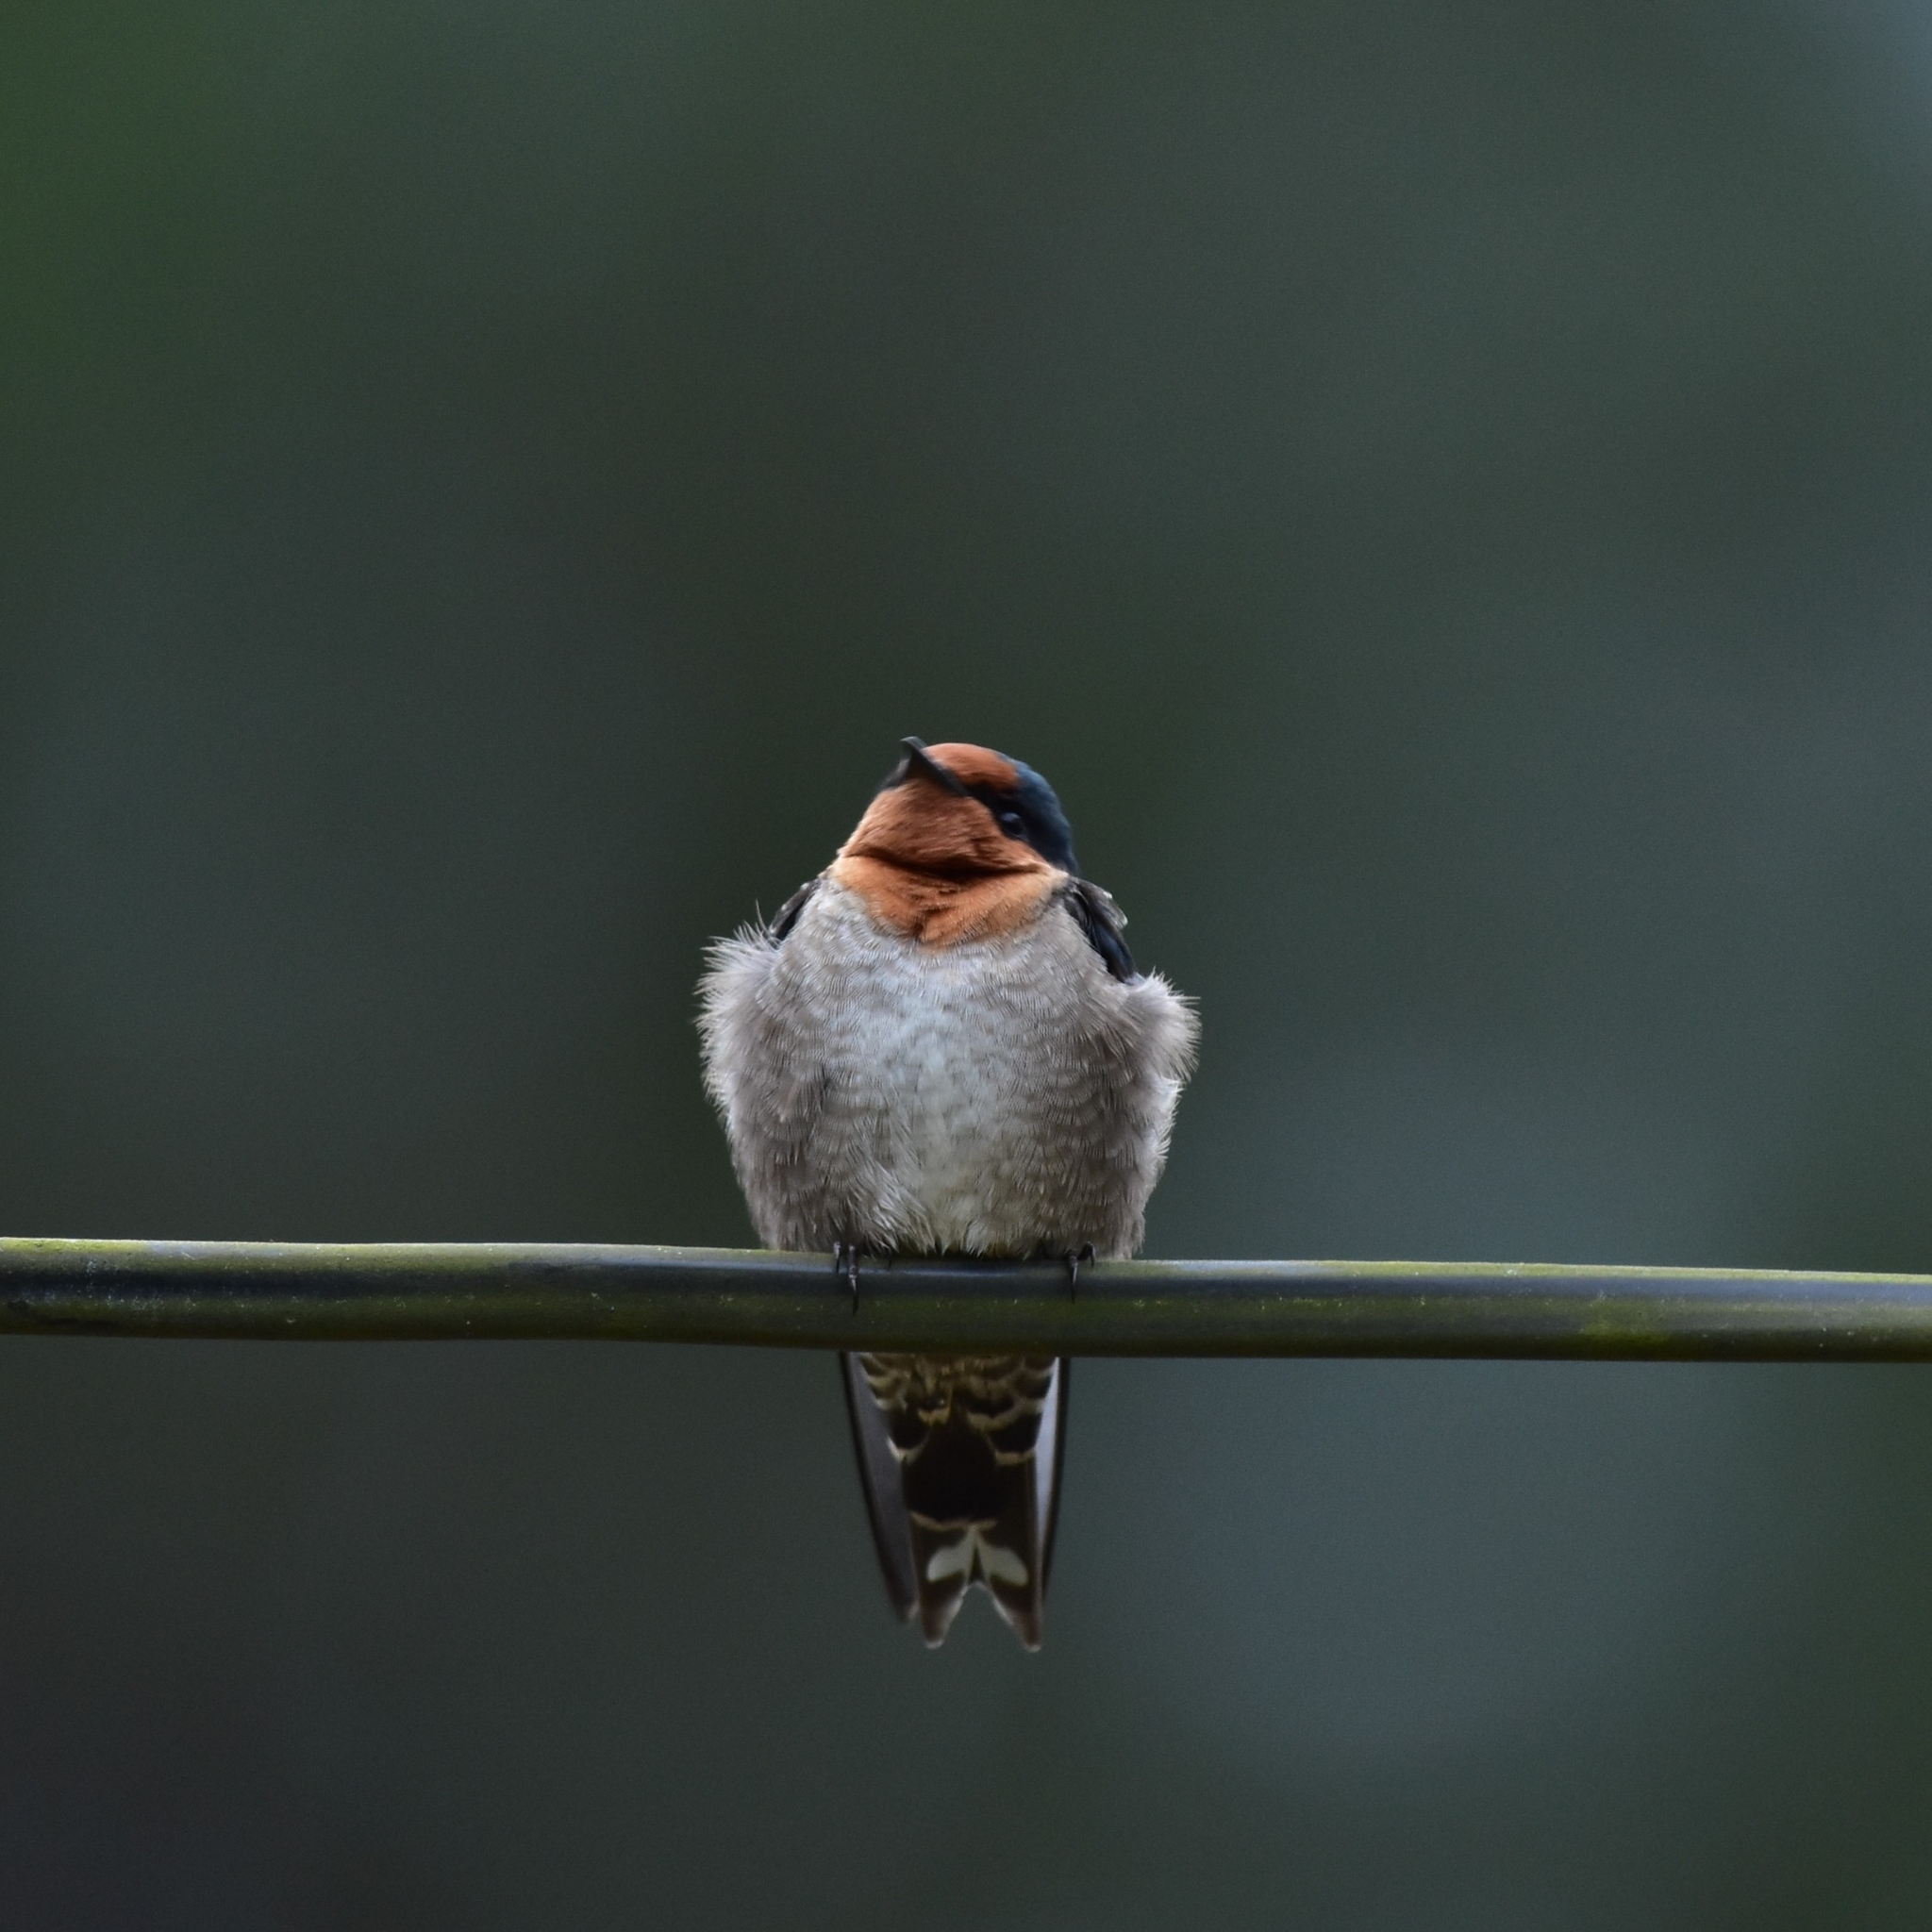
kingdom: Animalia
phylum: Chordata
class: Aves
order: Passeriformes
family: Hirundinidae
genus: Hirundo
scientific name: Hirundo domicola
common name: Hill swallow
